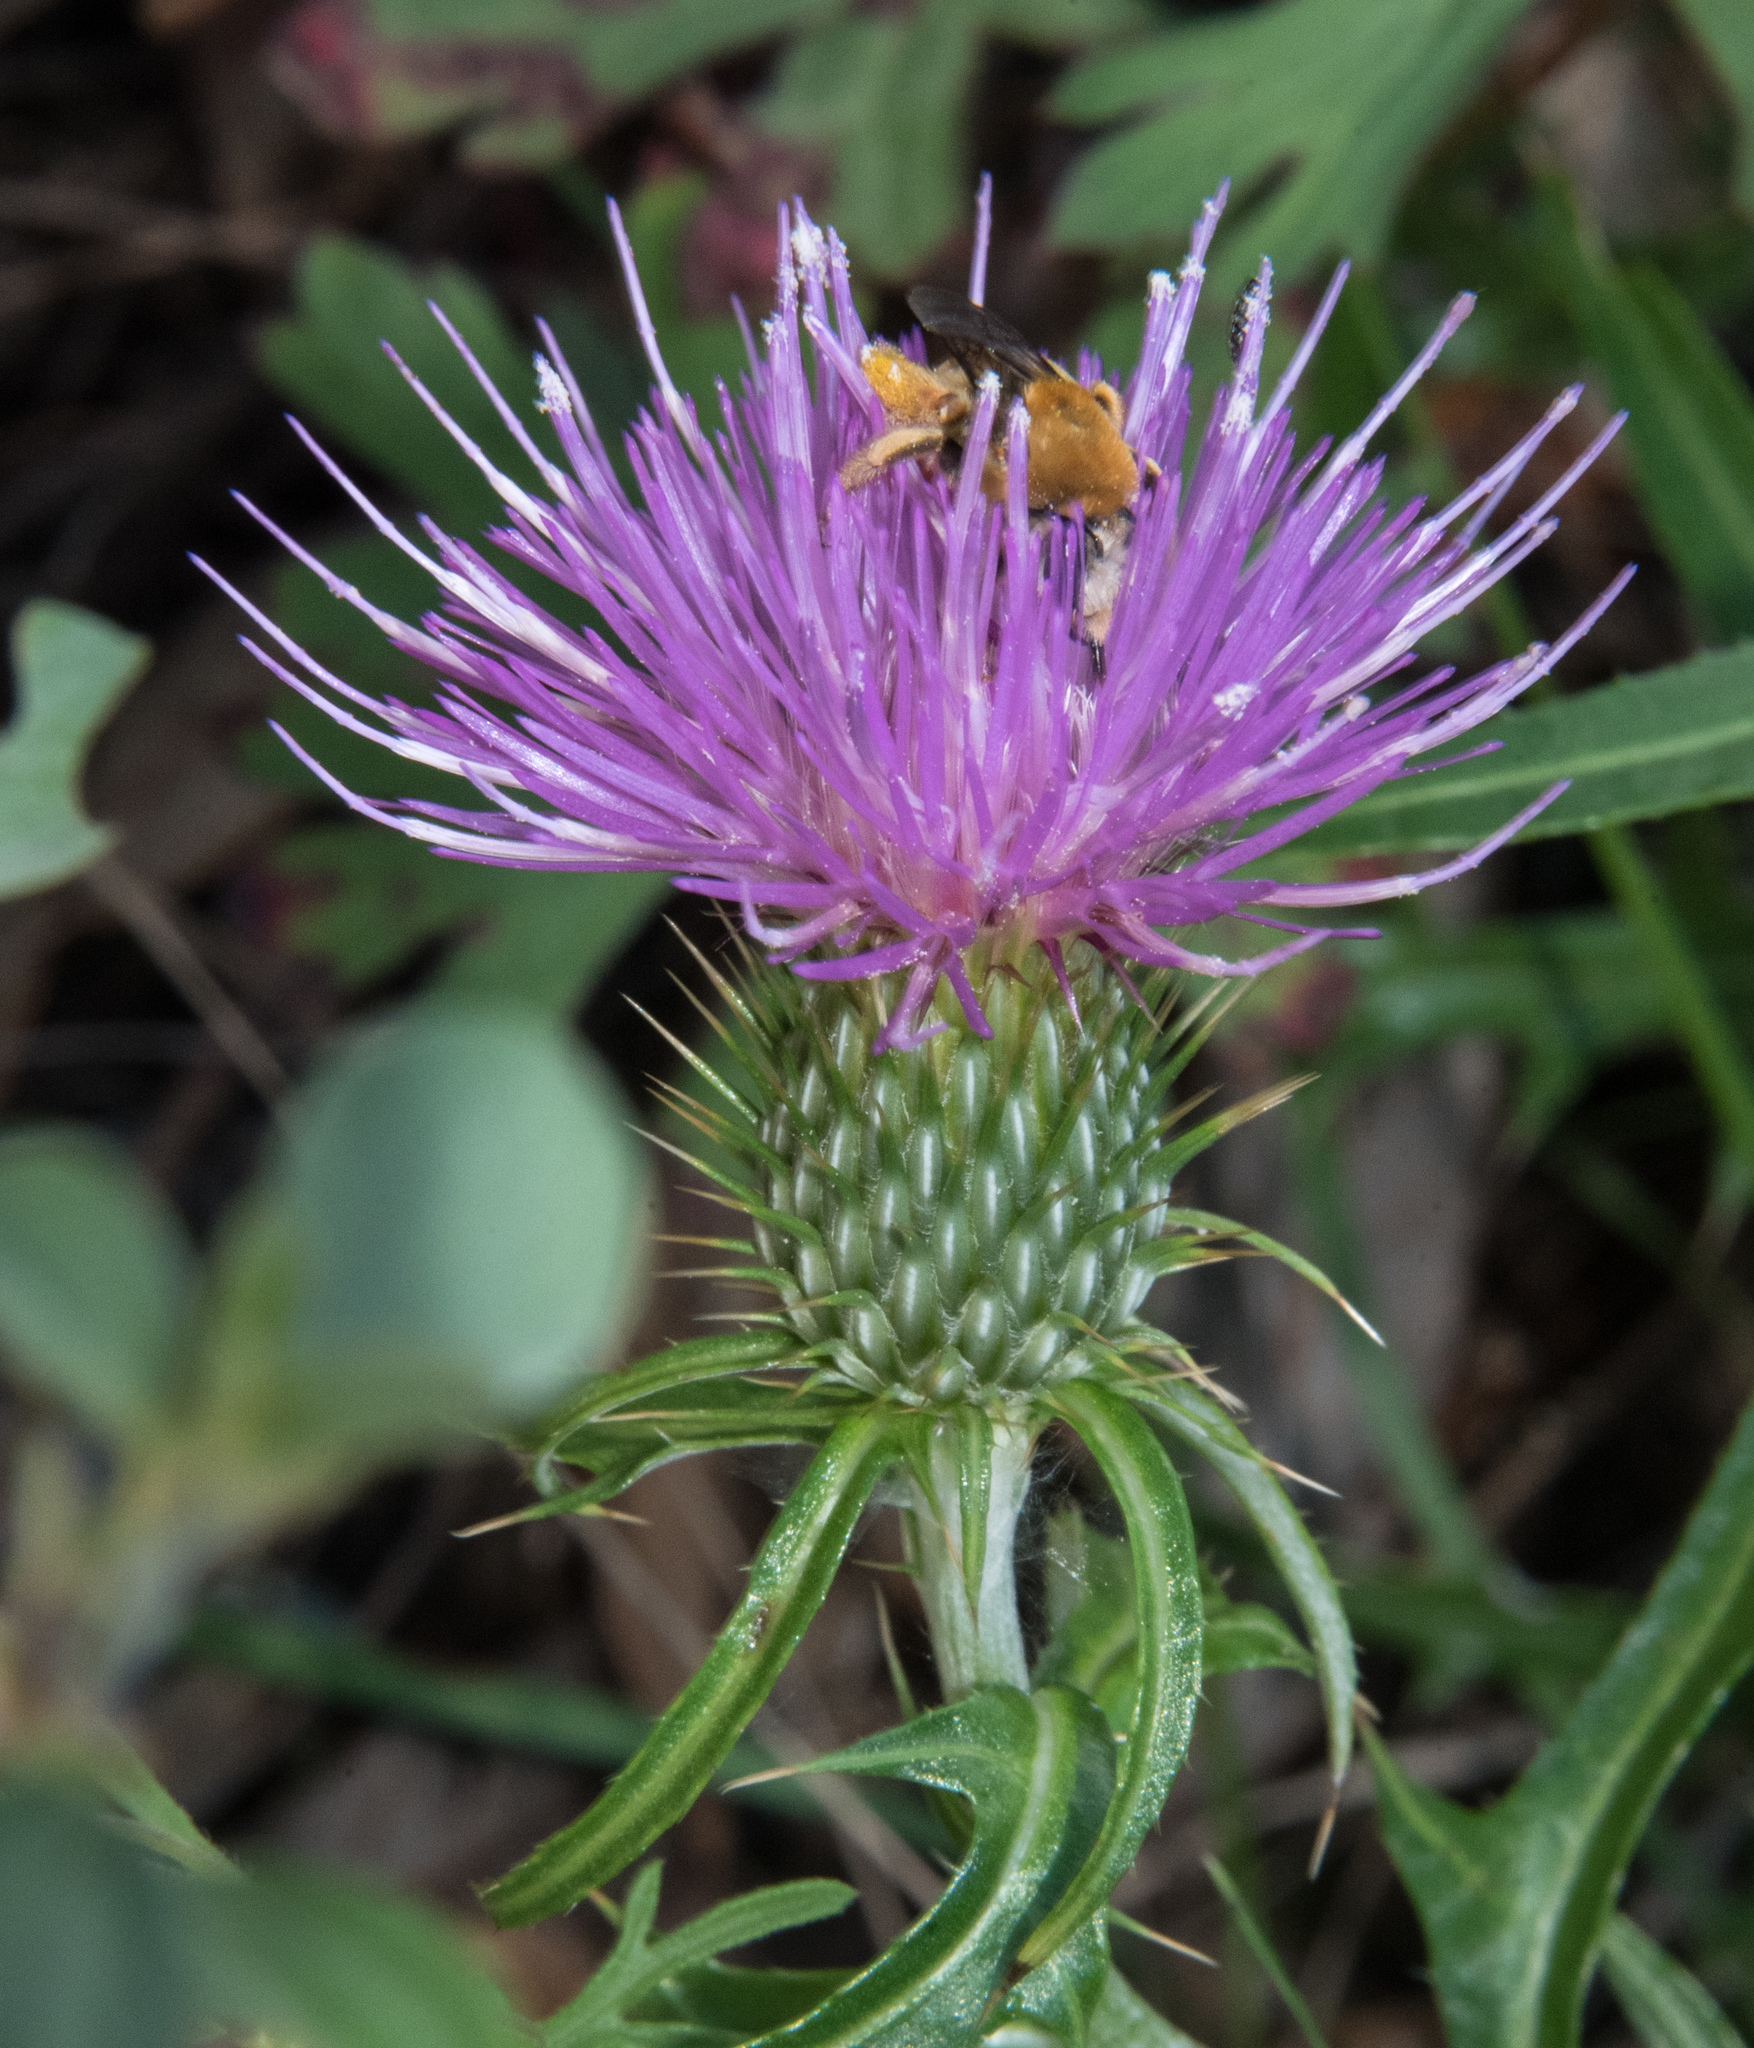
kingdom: Plantae
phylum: Tracheophyta
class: Magnoliopsida
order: Asterales
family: Asteraceae
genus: Cirsium
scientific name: Cirsium grahamii
